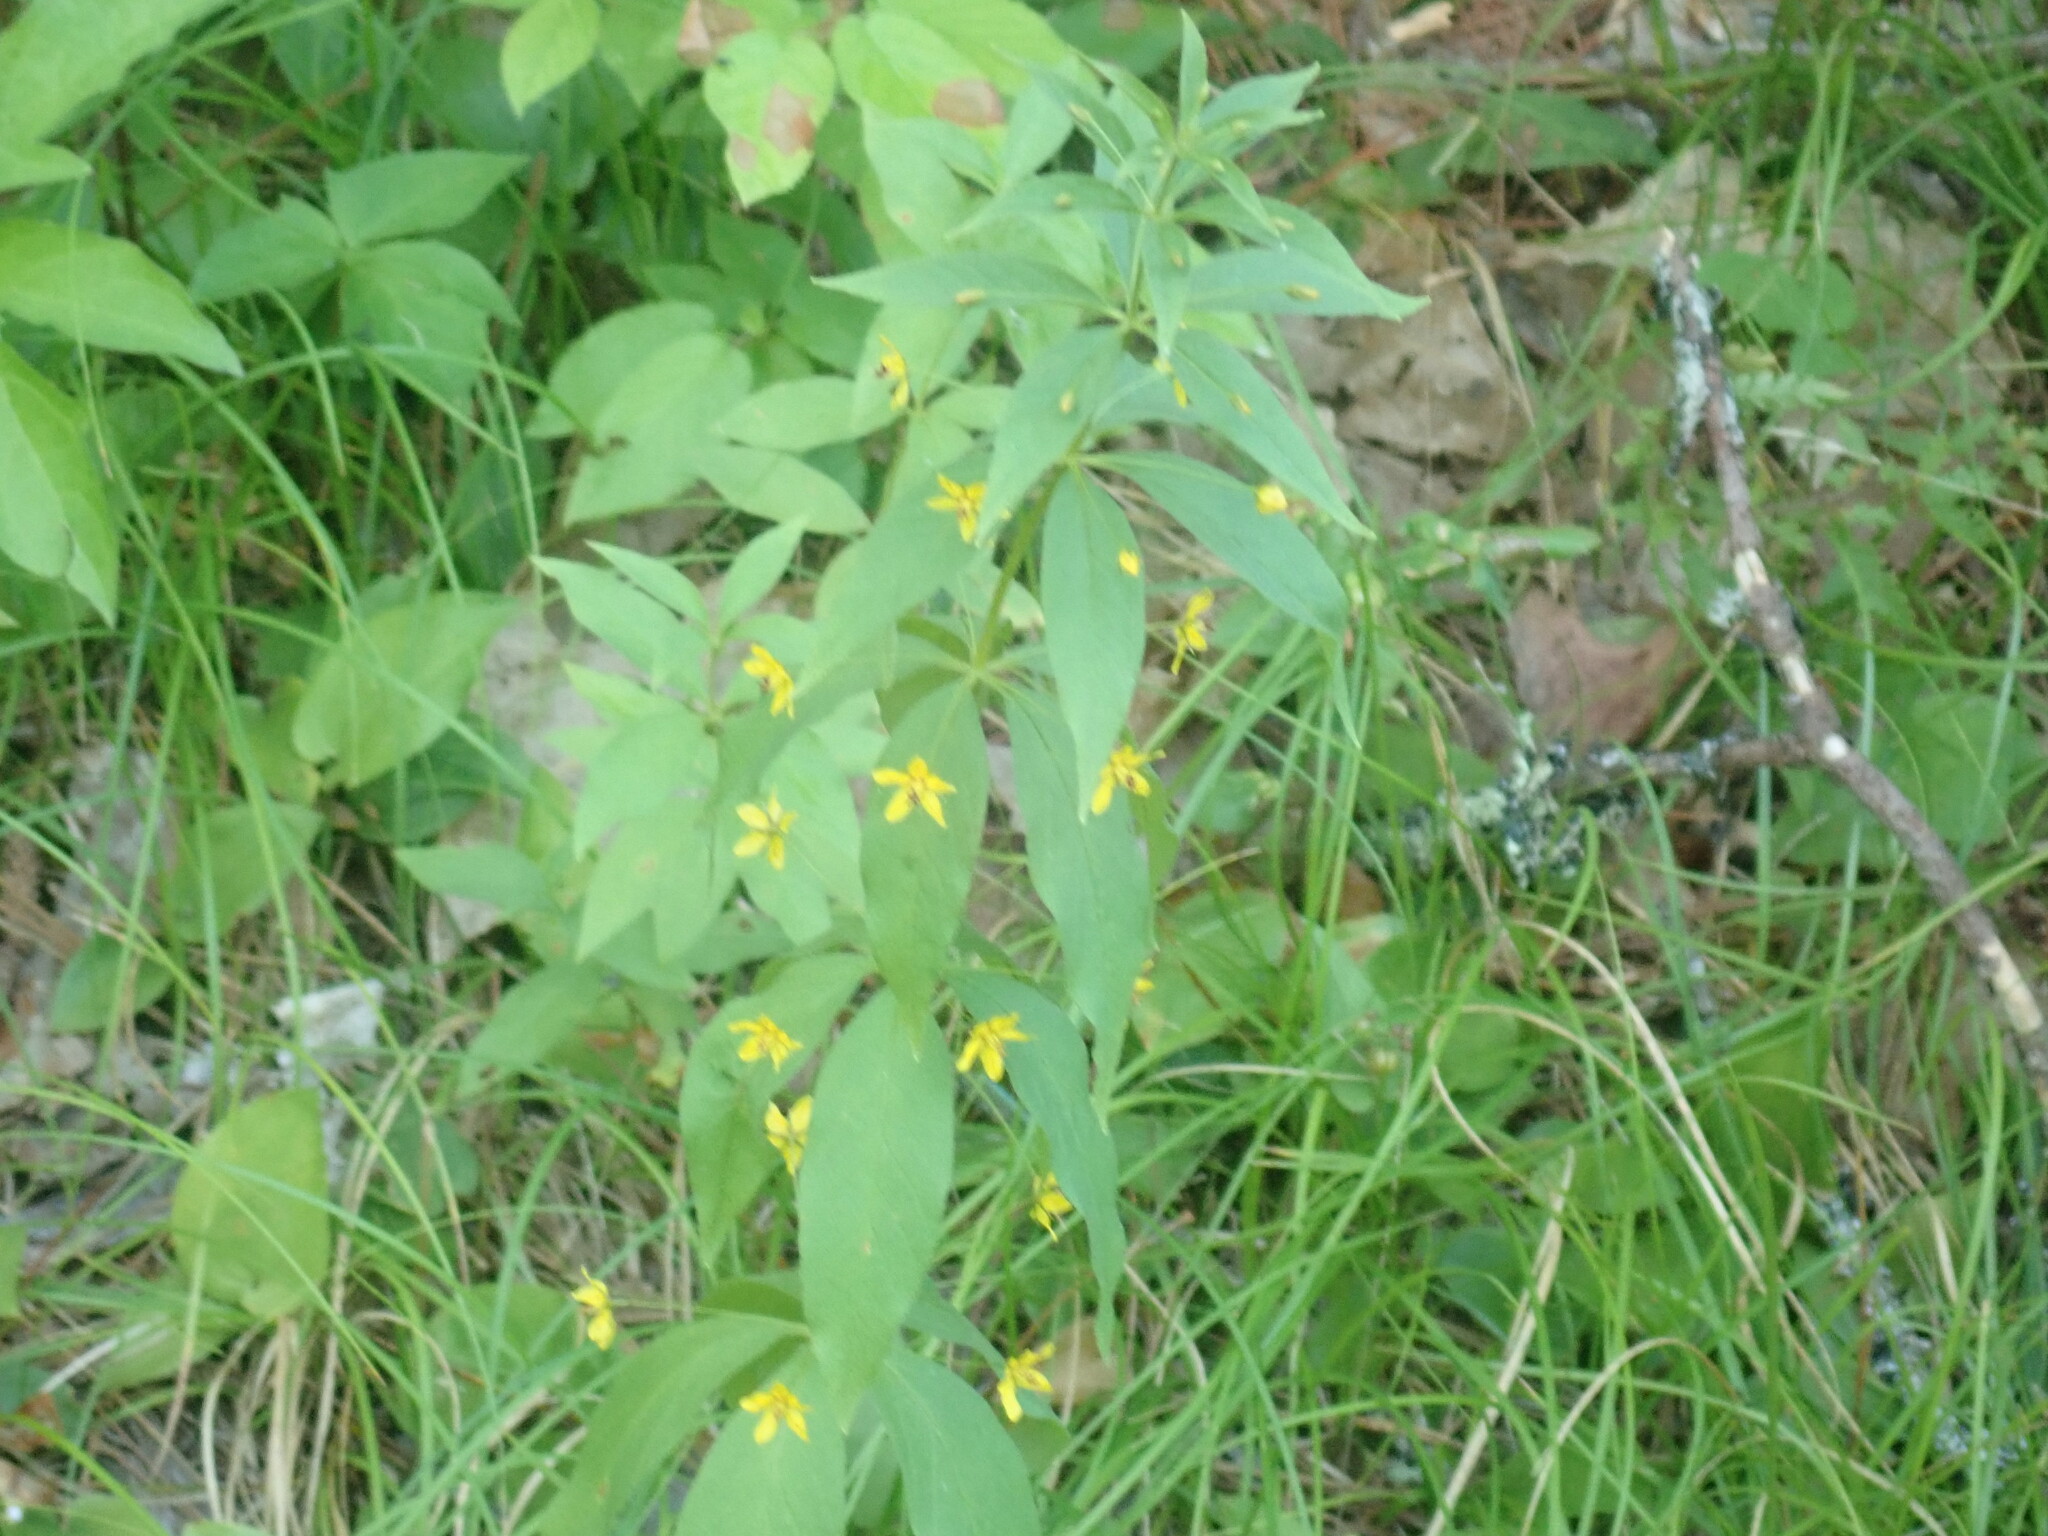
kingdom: Plantae
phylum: Tracheophyta
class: Magnoliopsida
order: Ericales
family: Primulaceae
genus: Lysimachia
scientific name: Lysimachia quadrifolia
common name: Whorled loosestrife
